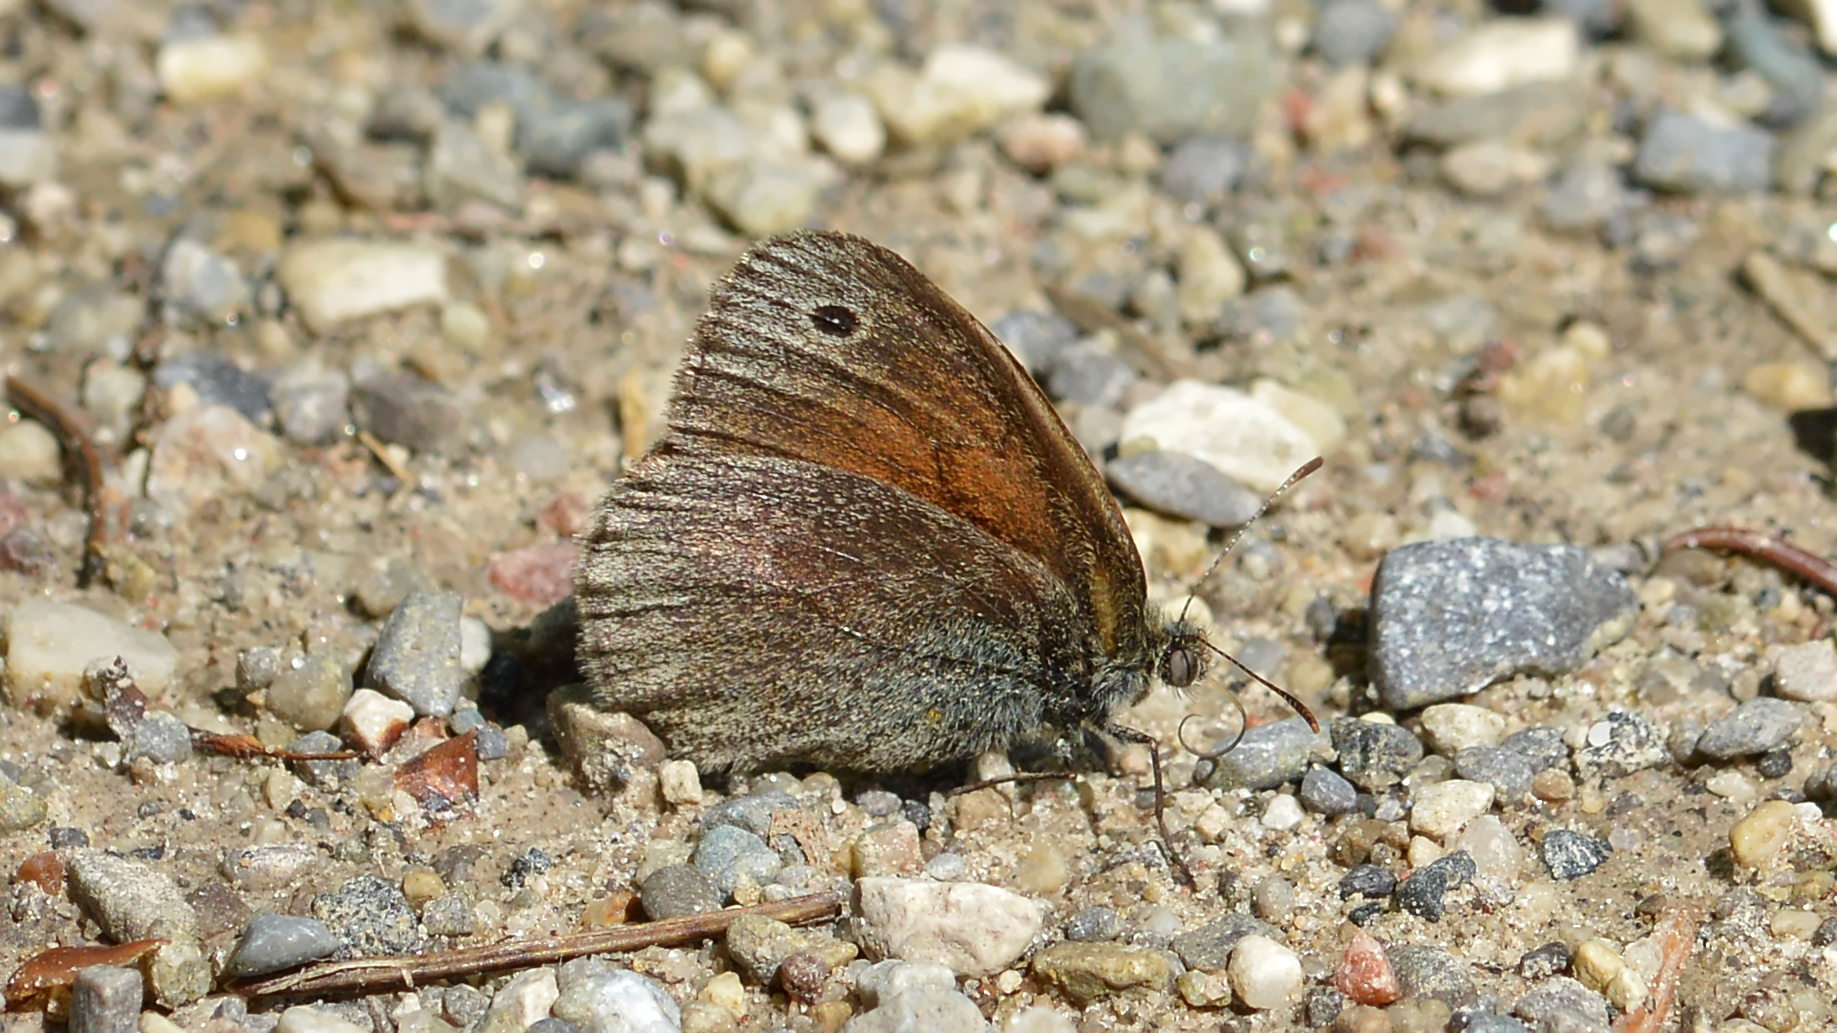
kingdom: Animalia
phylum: Arthropoda
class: Insecta
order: Lepidoptera
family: Nymphalidae
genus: Coenonympha
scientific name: Coenonympha california
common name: Common ringlet
